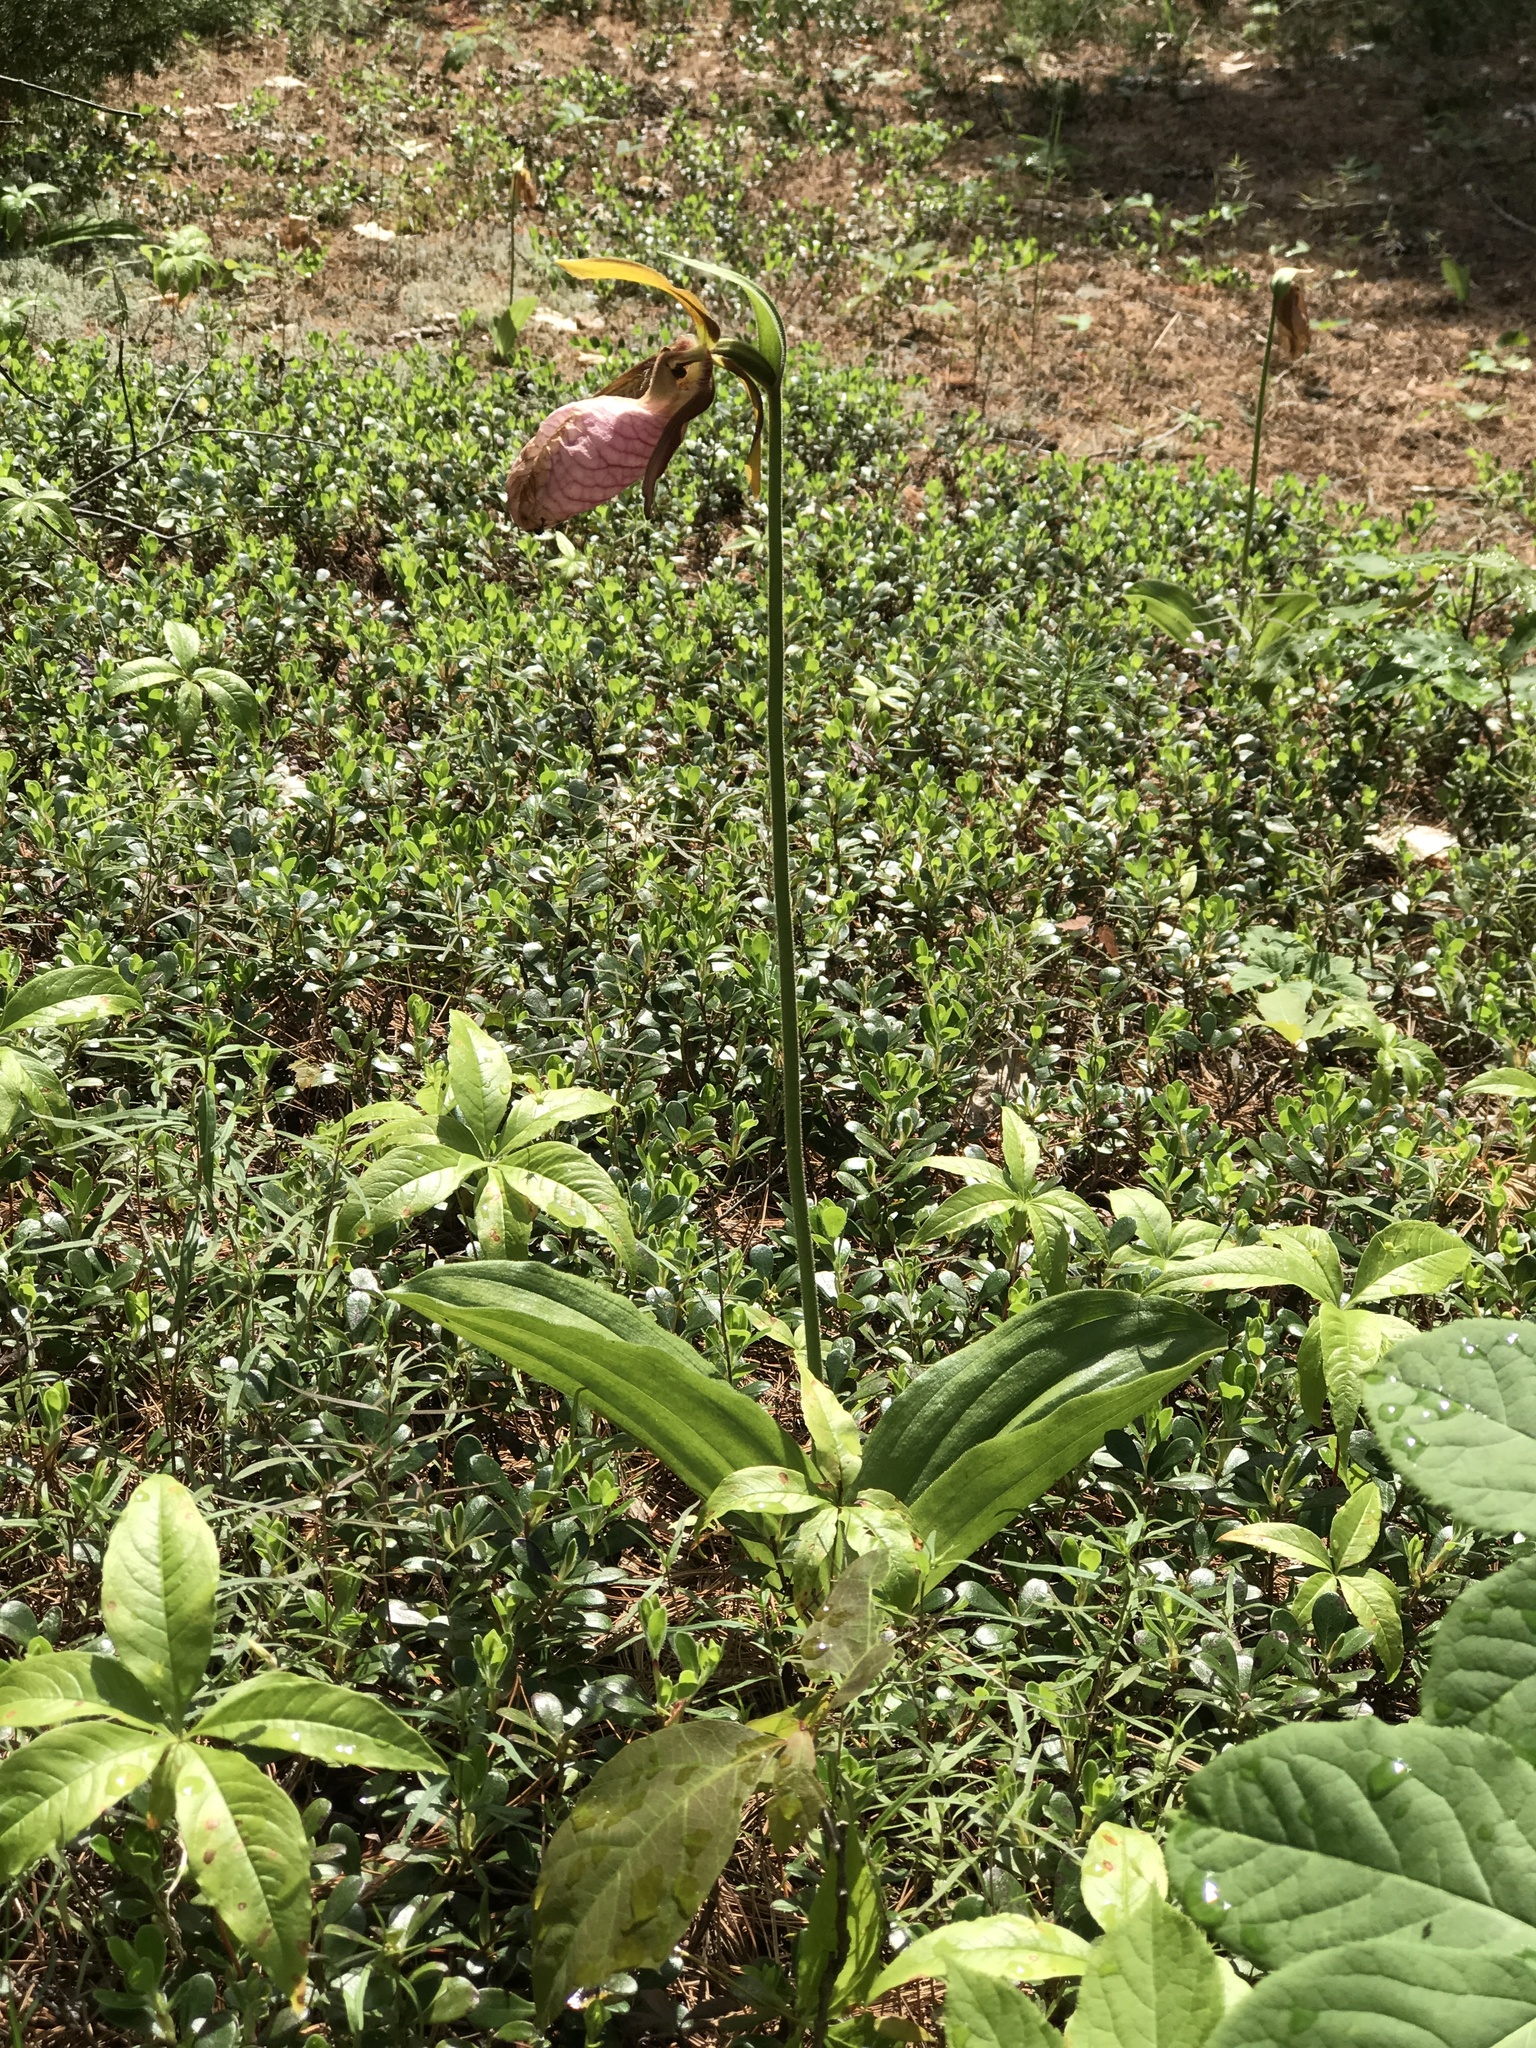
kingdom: Plantae
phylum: Tracheophyta
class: Liliopsida
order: Asparagales
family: Orchidaceae
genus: Cypripedium
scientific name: Cypripedium acaule
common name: Pink lady's-slipper
